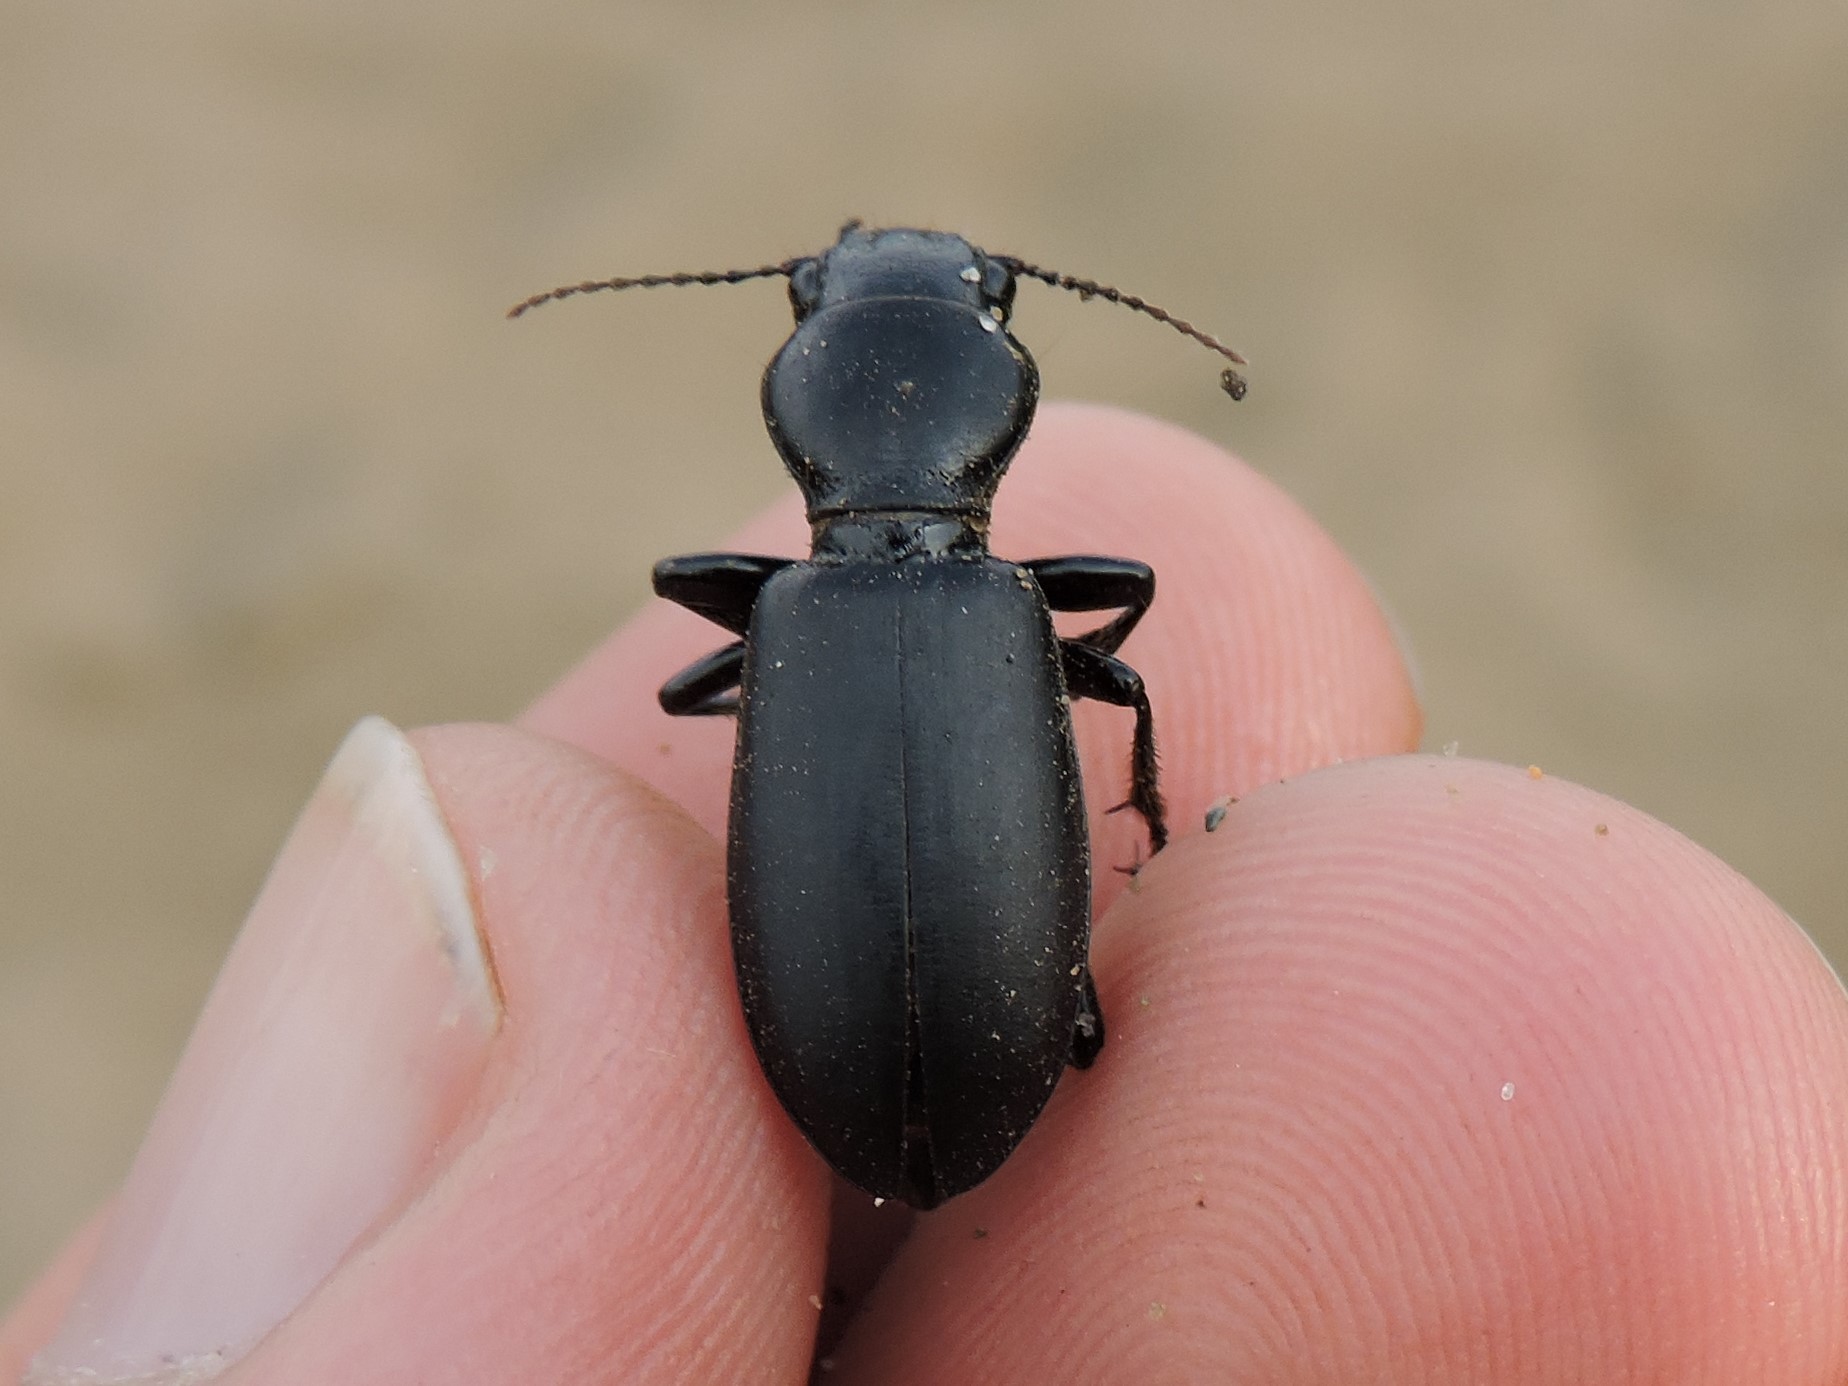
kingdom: Animalia
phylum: Arthropoda
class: Insecta
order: Coleoptera
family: Carabidae
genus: Broscus
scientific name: Broscus cephalotes
